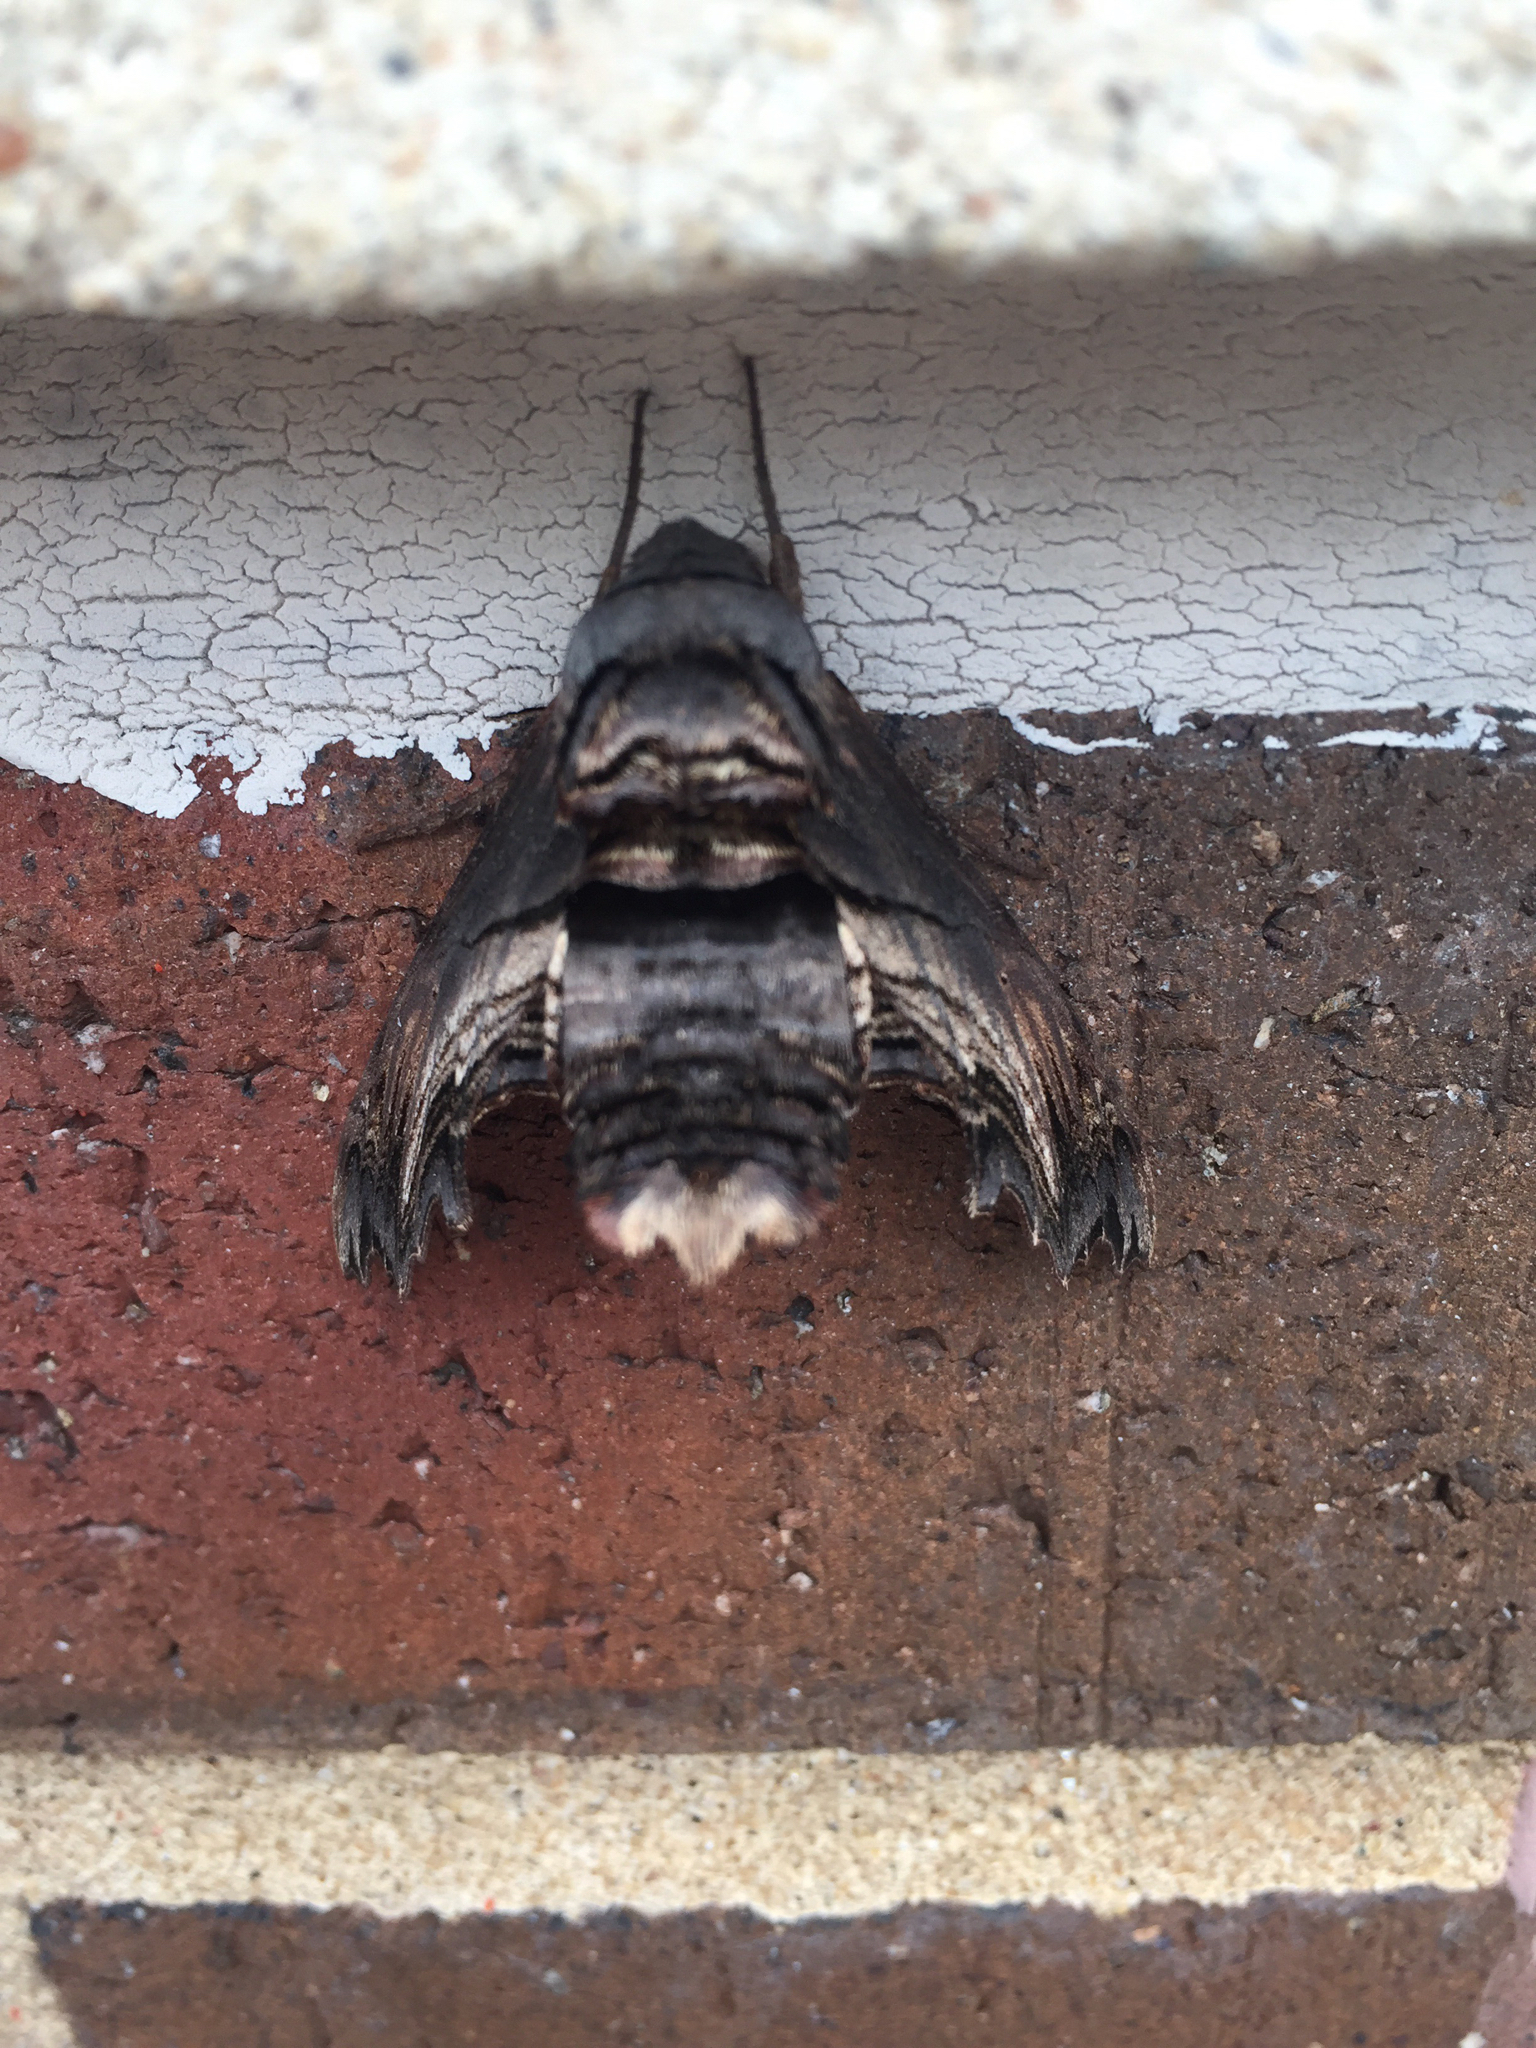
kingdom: Animalia
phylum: Arthropoda
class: Insecta
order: Lepidoptera
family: Sphingidae
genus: Sphecodina
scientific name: Sphecodina abbottii
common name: Abbott's sphinx
